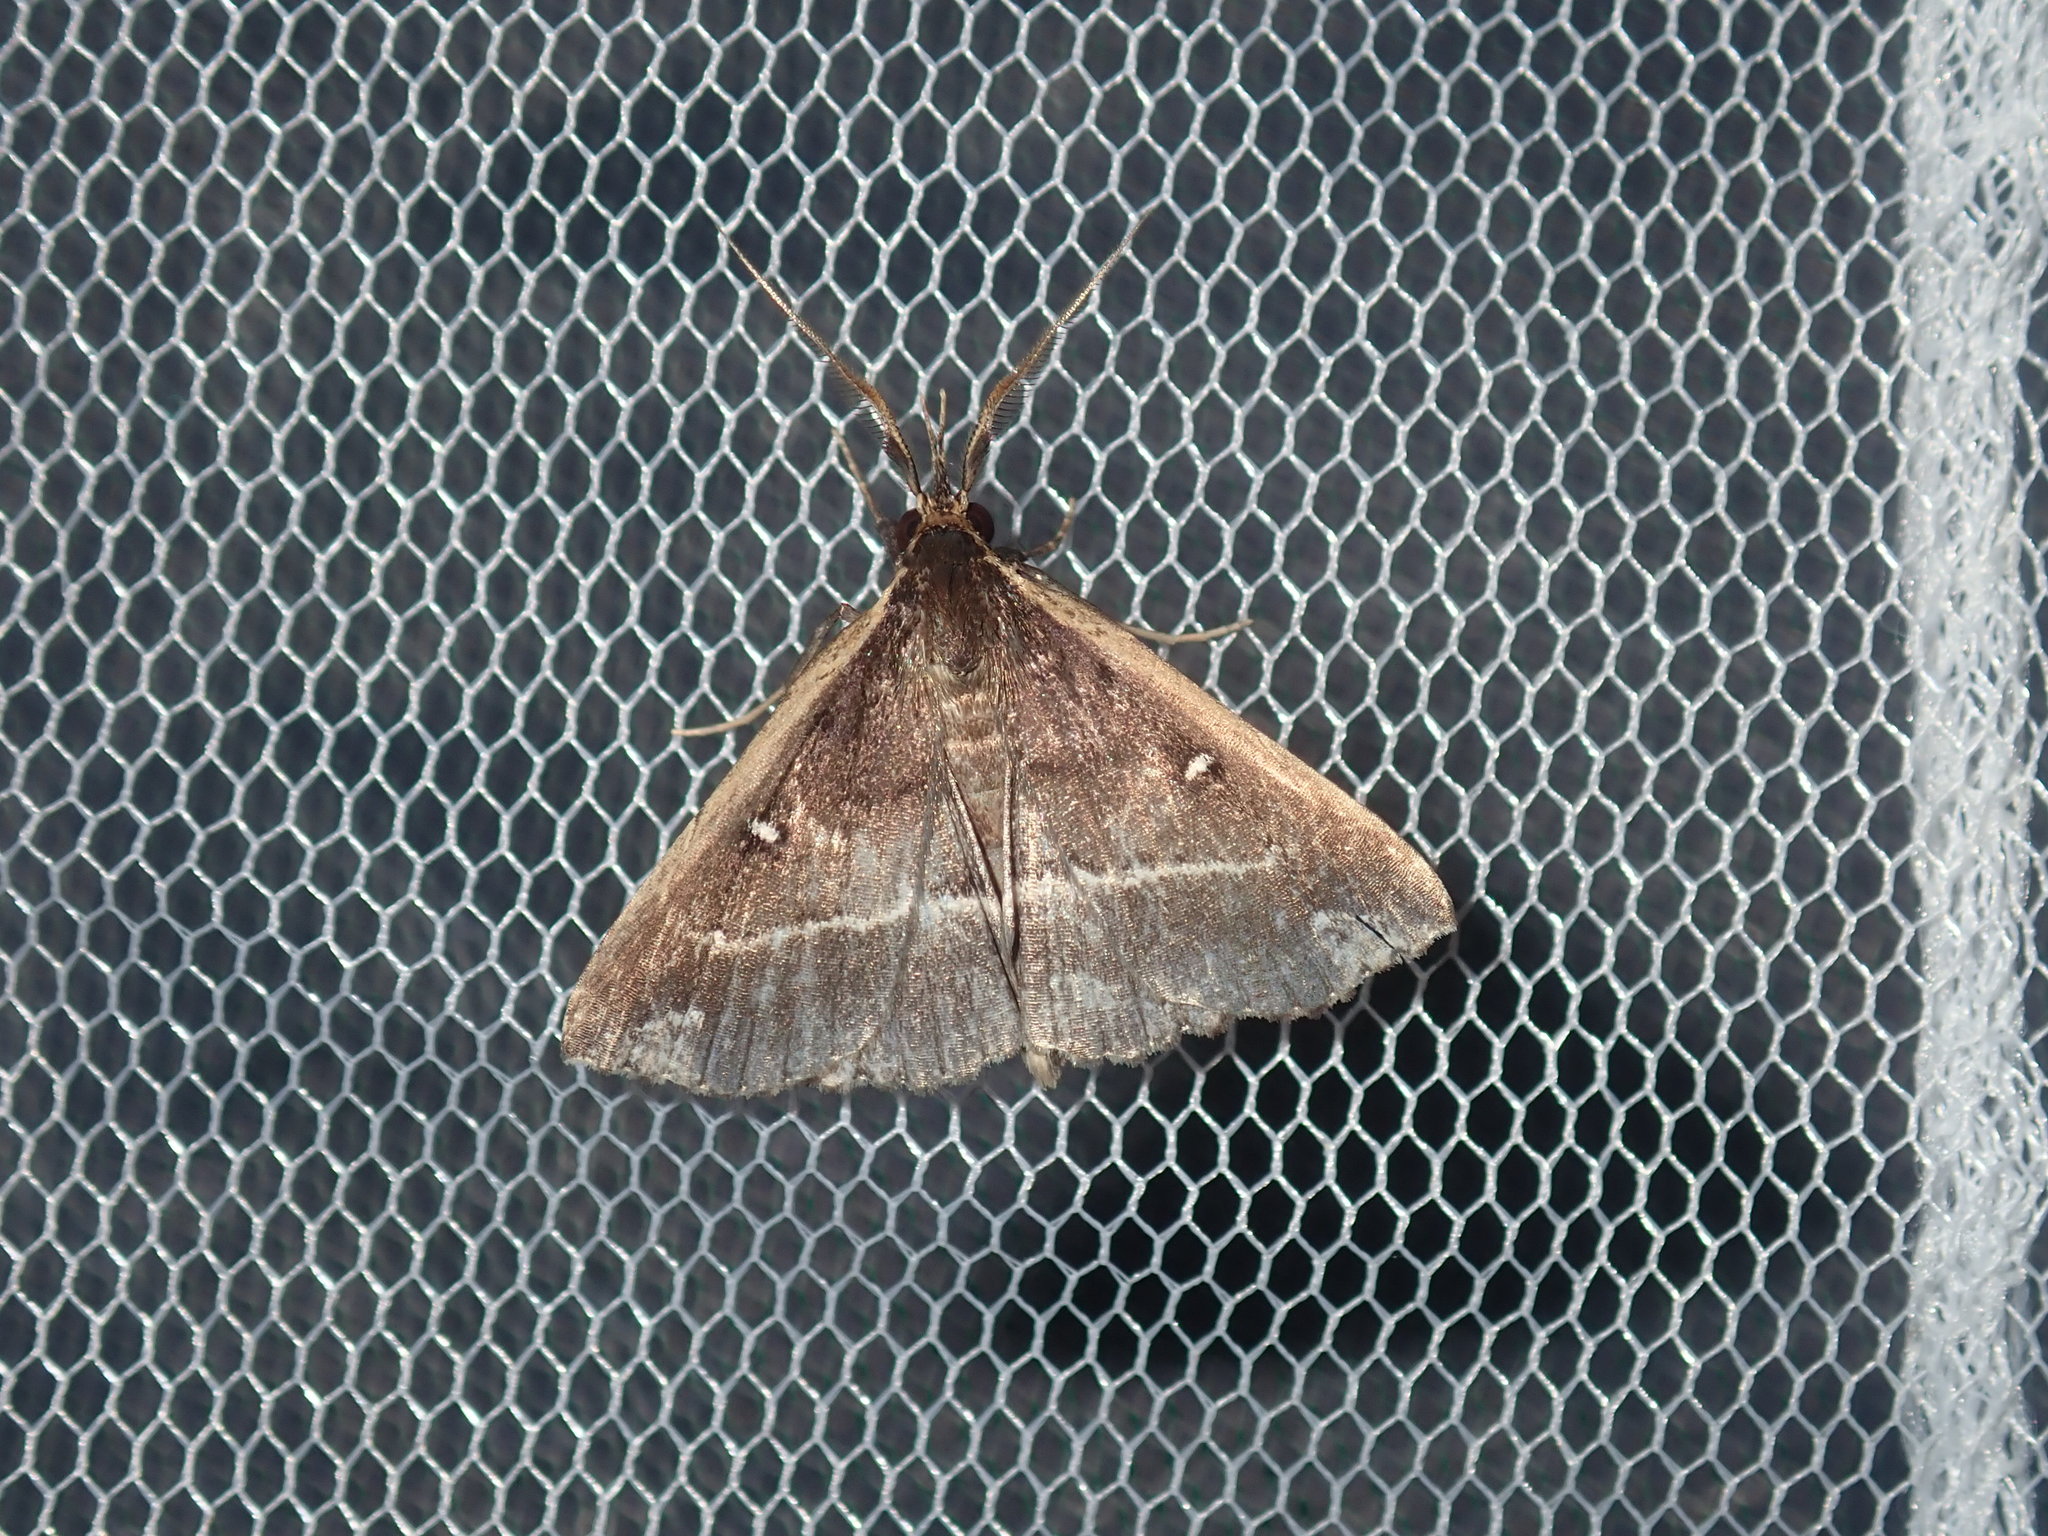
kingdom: Animalia
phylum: Arthropoda
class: Insecta
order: Lepidoptera
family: Erebidae
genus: Adrapsa
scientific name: Adrapsa ablualis
